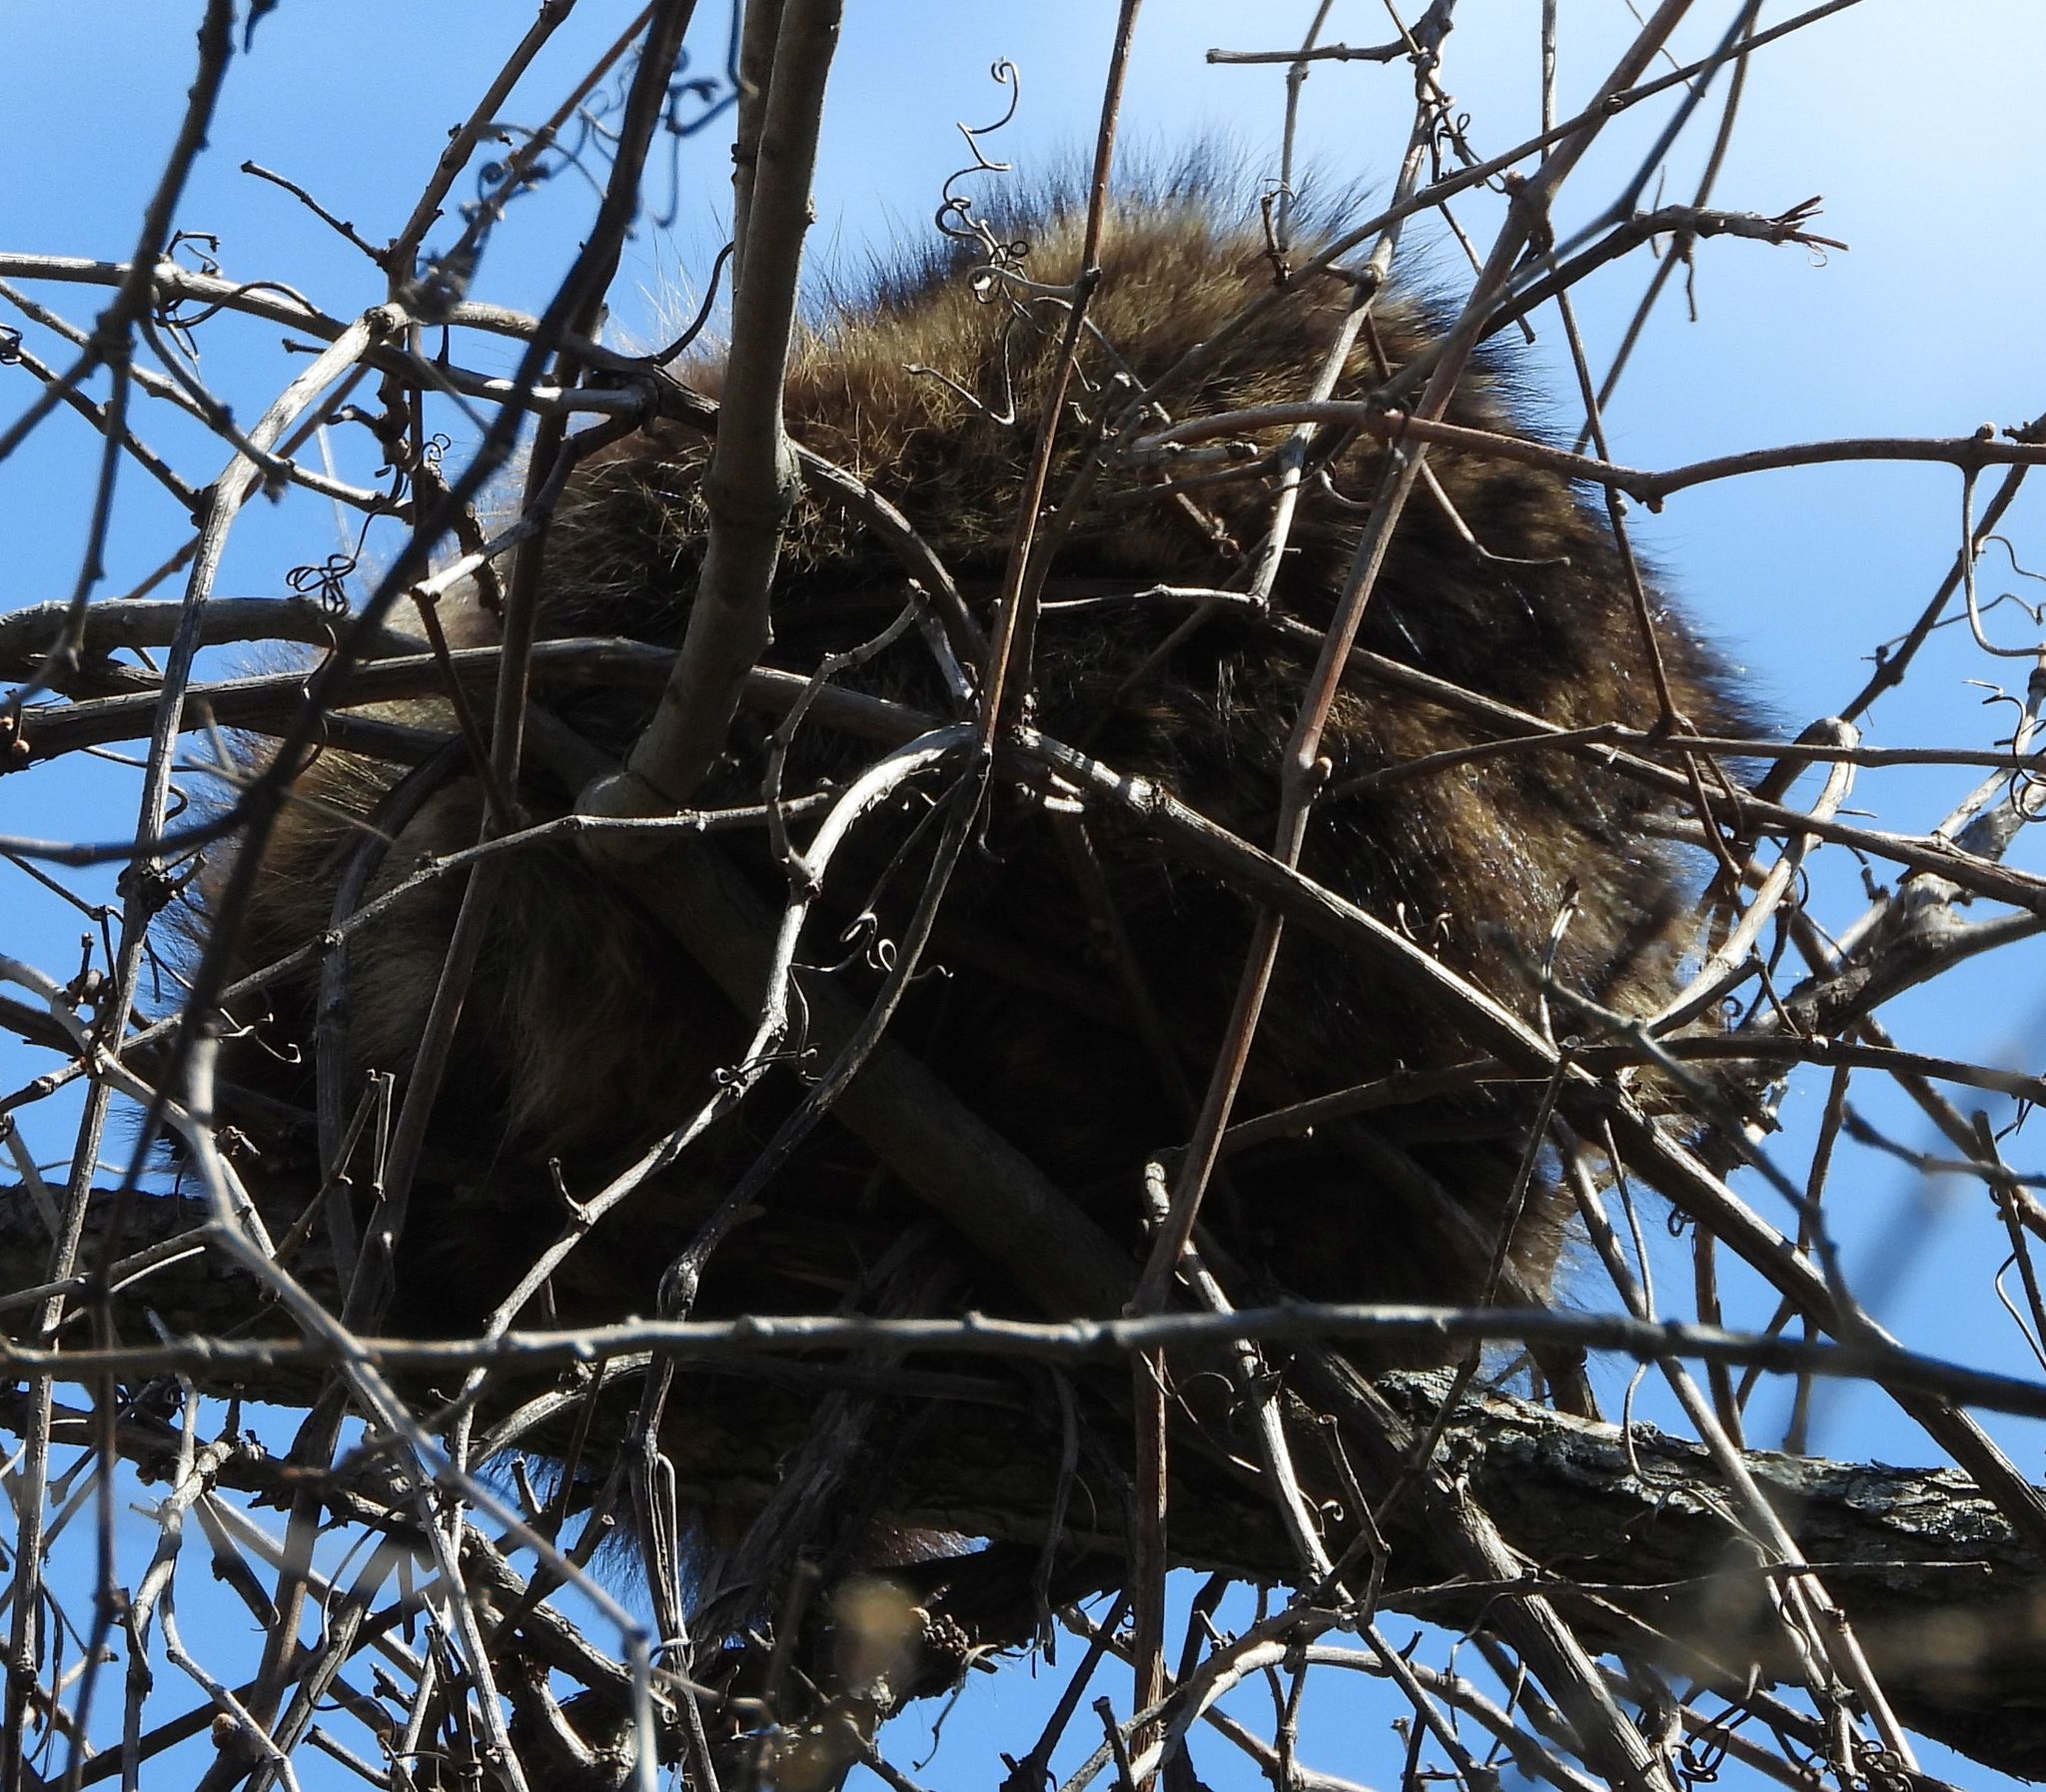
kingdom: Animalia
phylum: Chordata
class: Mammalia
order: Carnivora
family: Procyonidae
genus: Procyon
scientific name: Procyon lotor
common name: Raccoon
